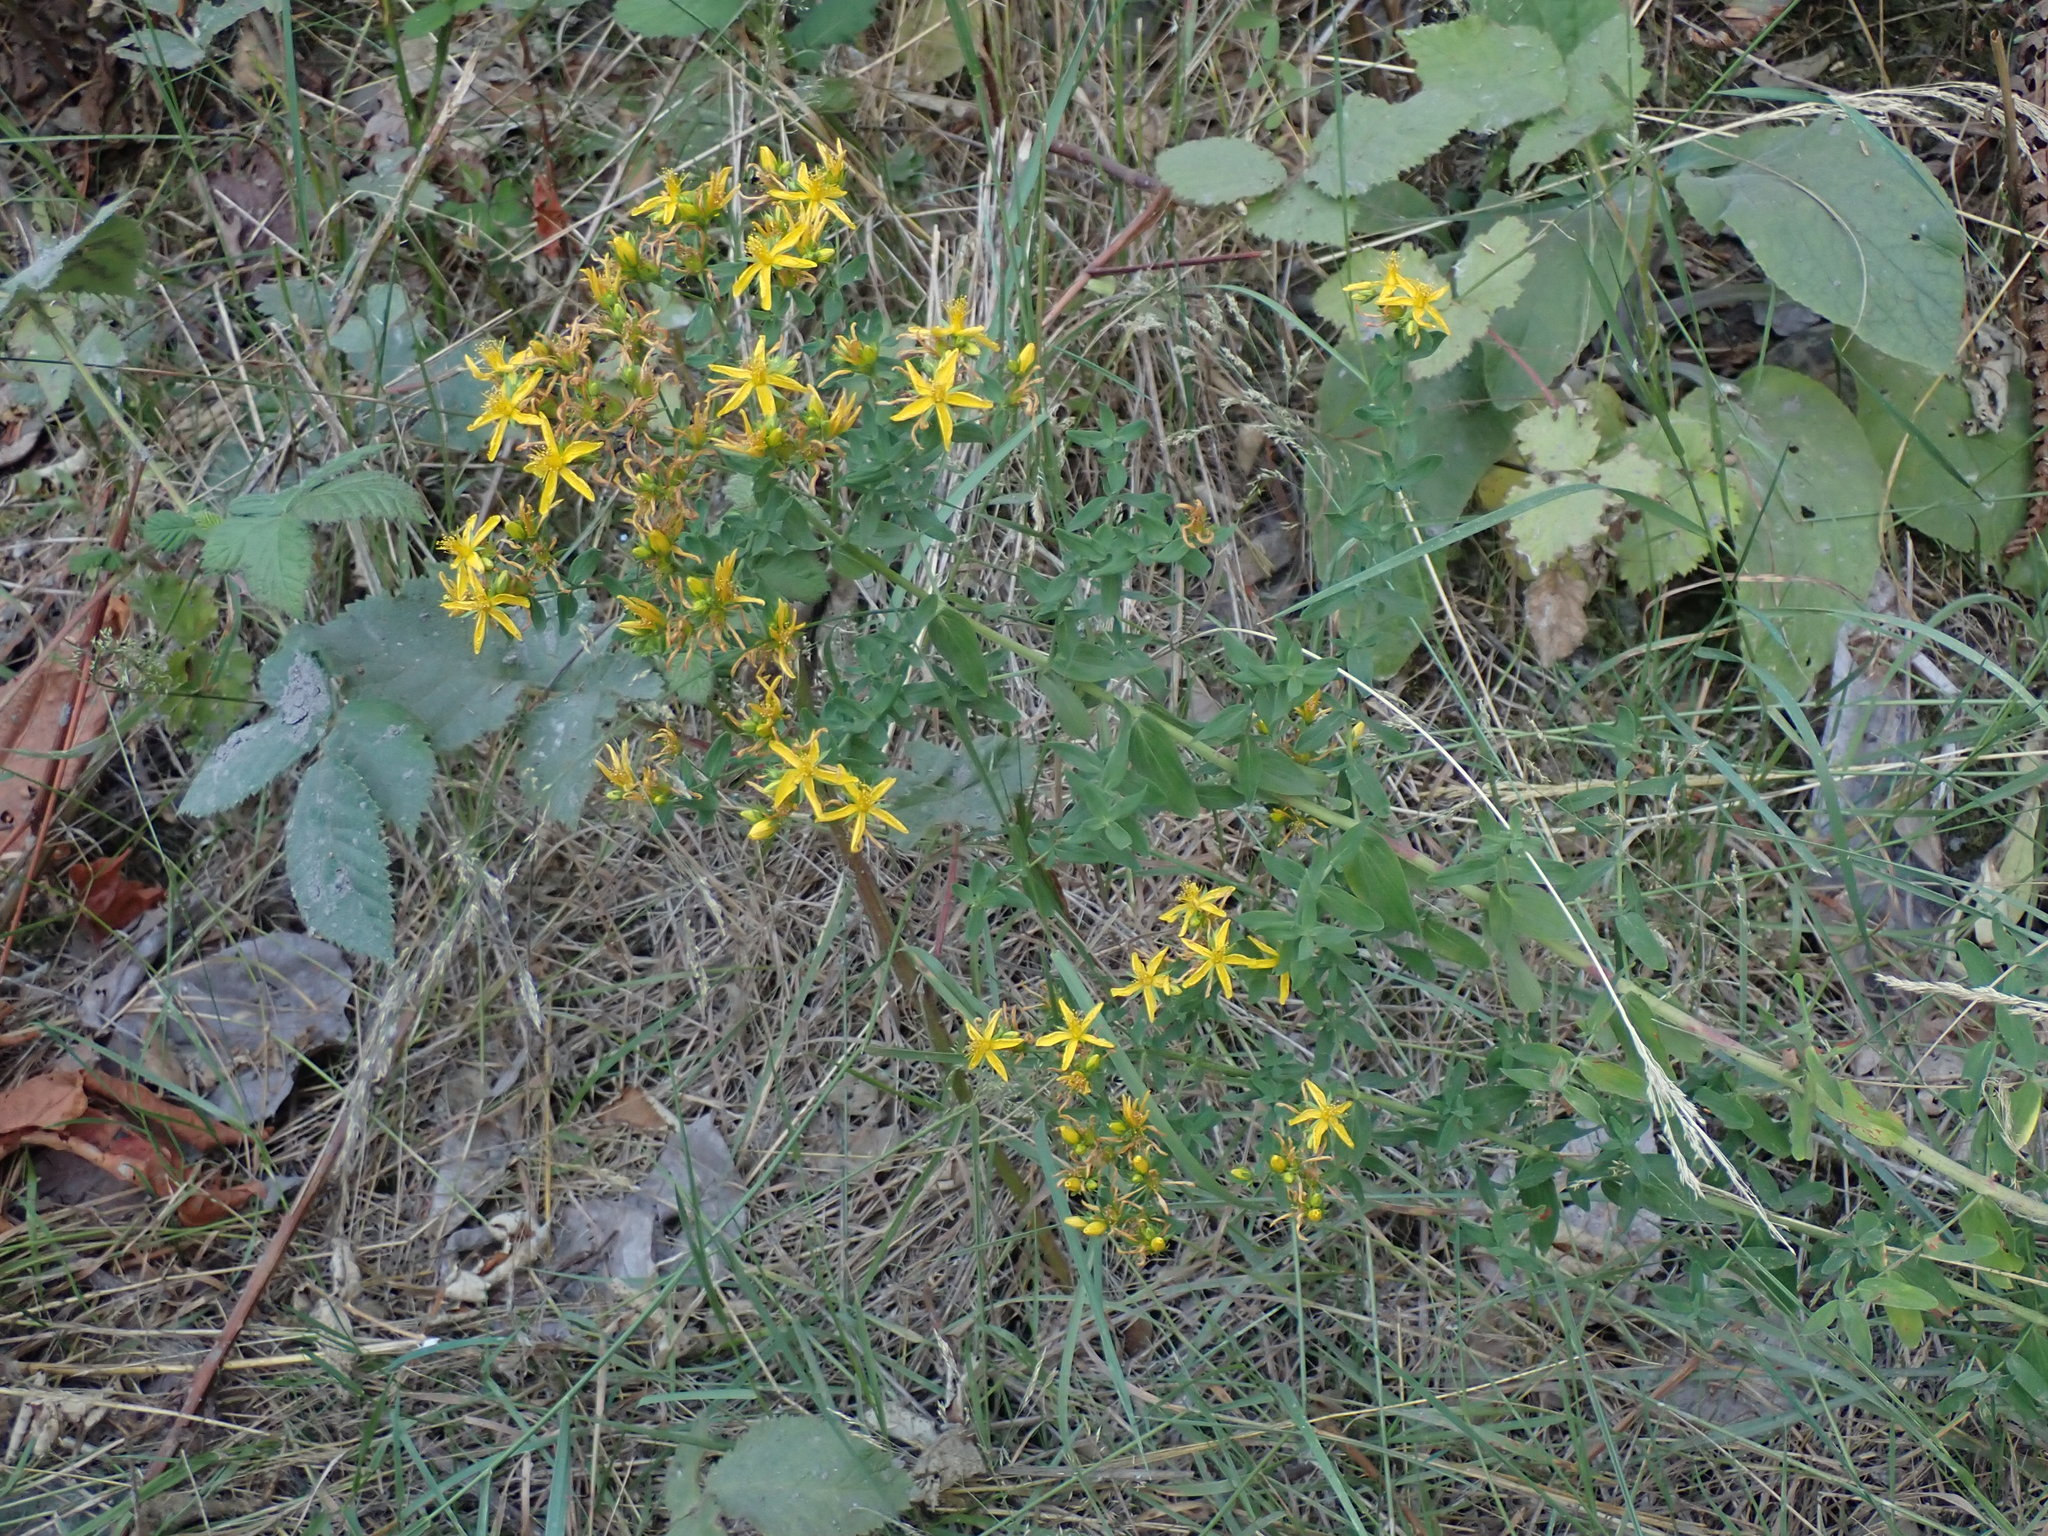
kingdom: Plantae
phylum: Tracheophyta
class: Magnoliopsida
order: Malpighiales
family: Hypericaceae
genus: Hypericum
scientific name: Hypericum perforatum
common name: Common st. johnswort
